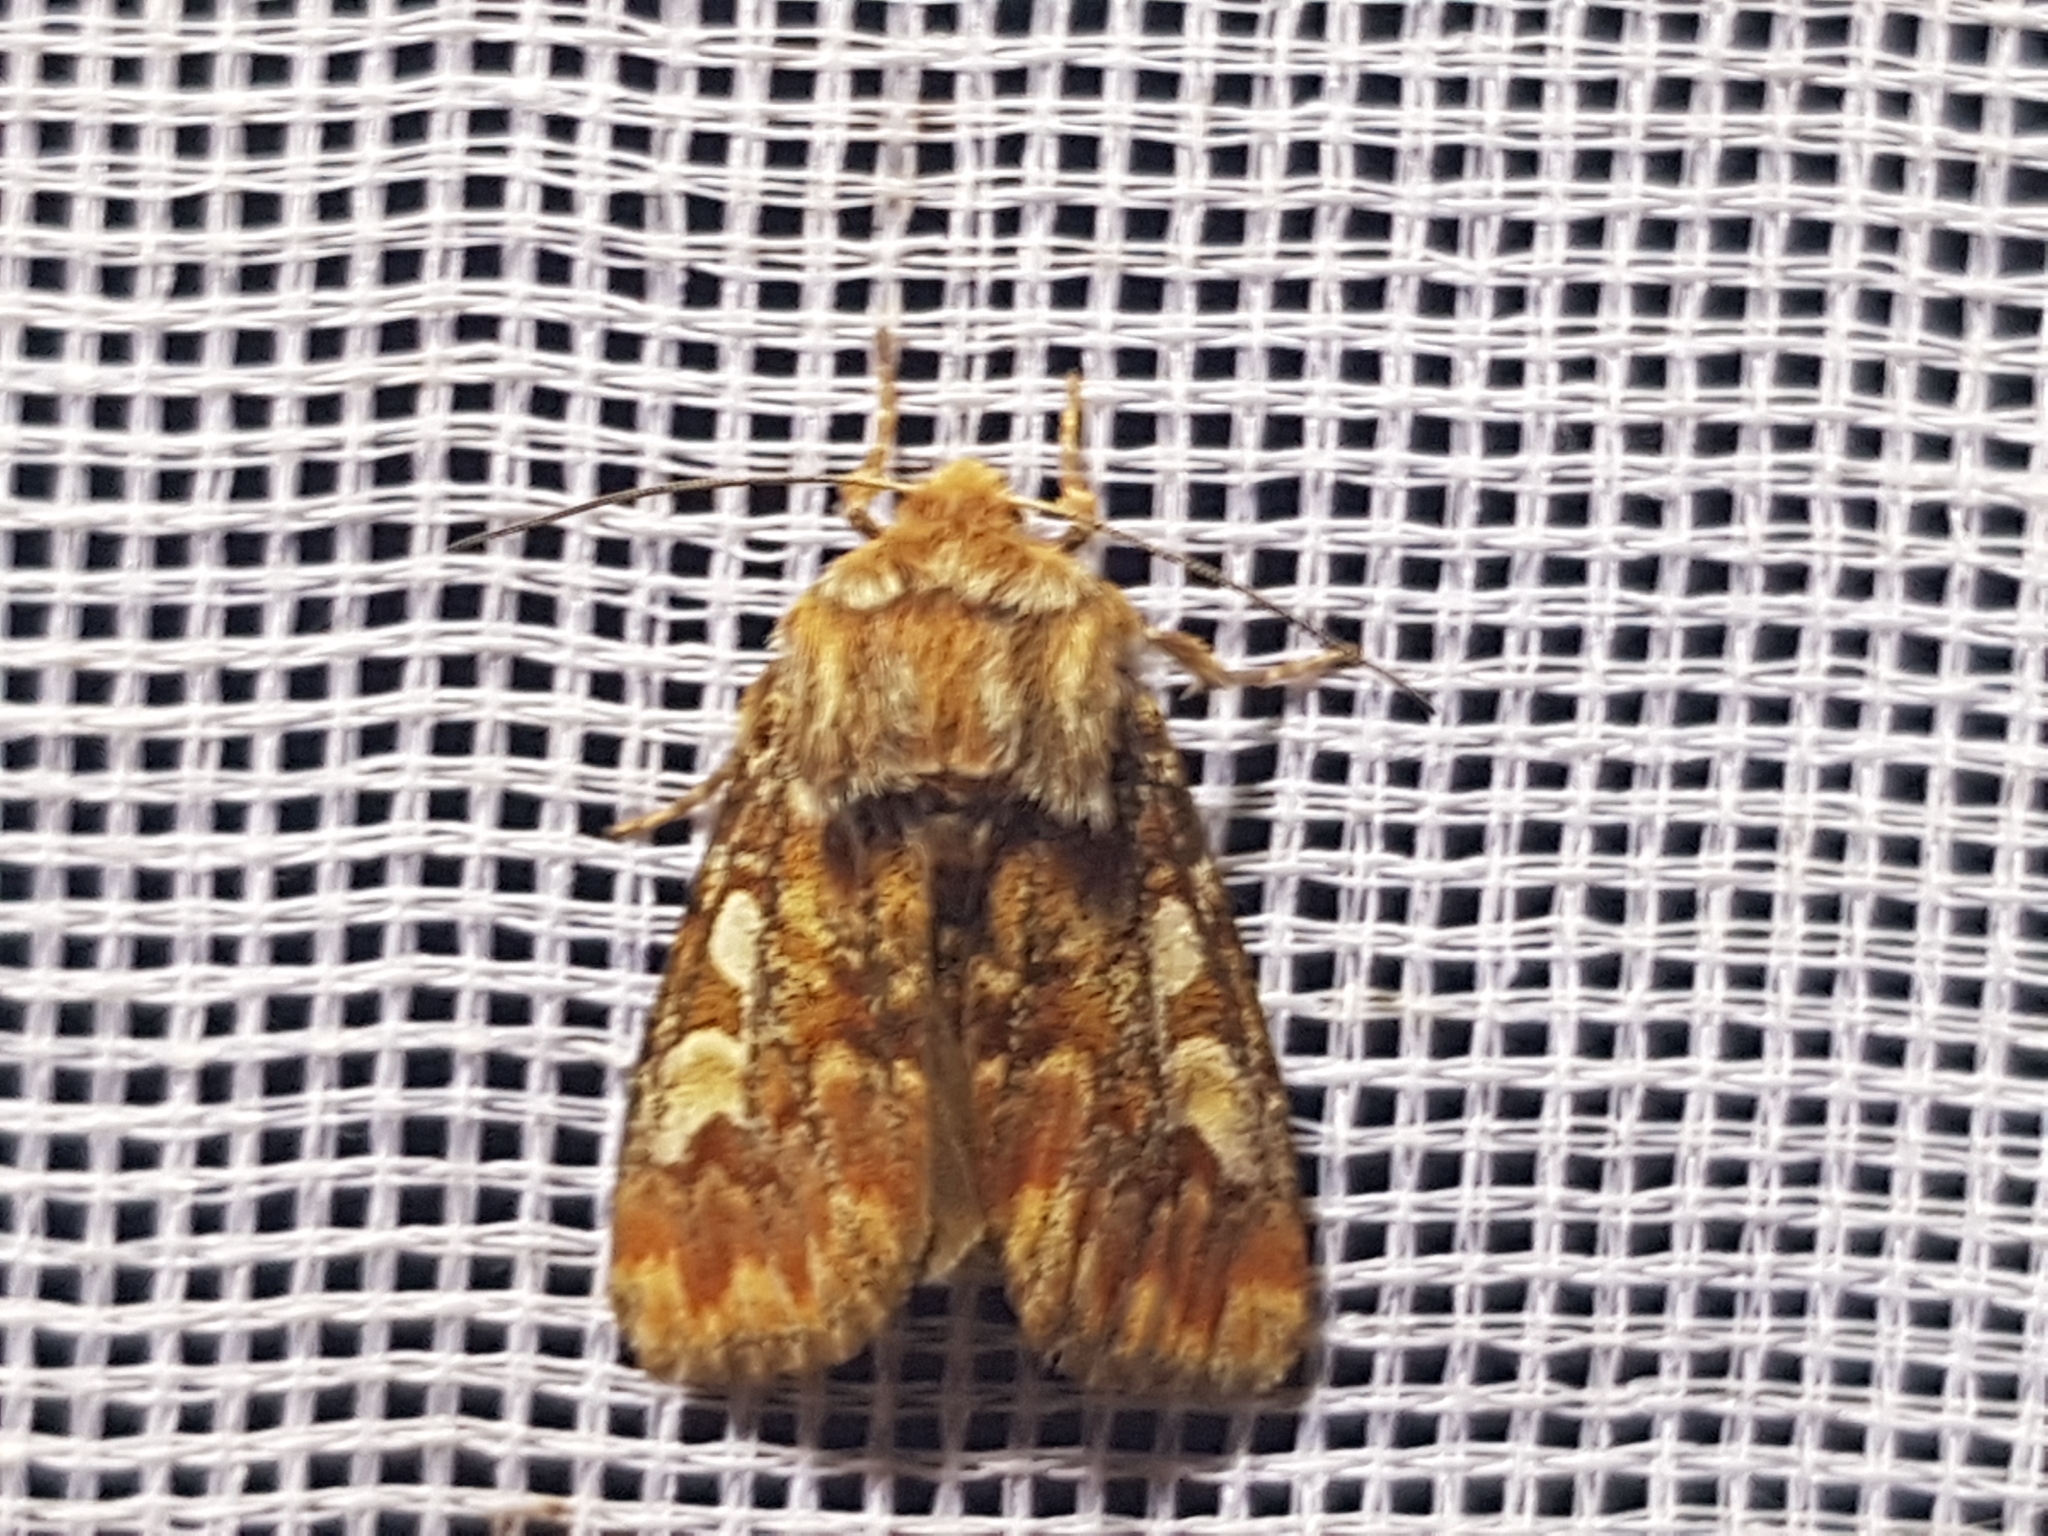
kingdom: Animalia
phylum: Arthropoda
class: Insecta
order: Lepidoptera
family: Noctuidae
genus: Panolis
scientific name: Panolis flammea
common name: Pine beauty
